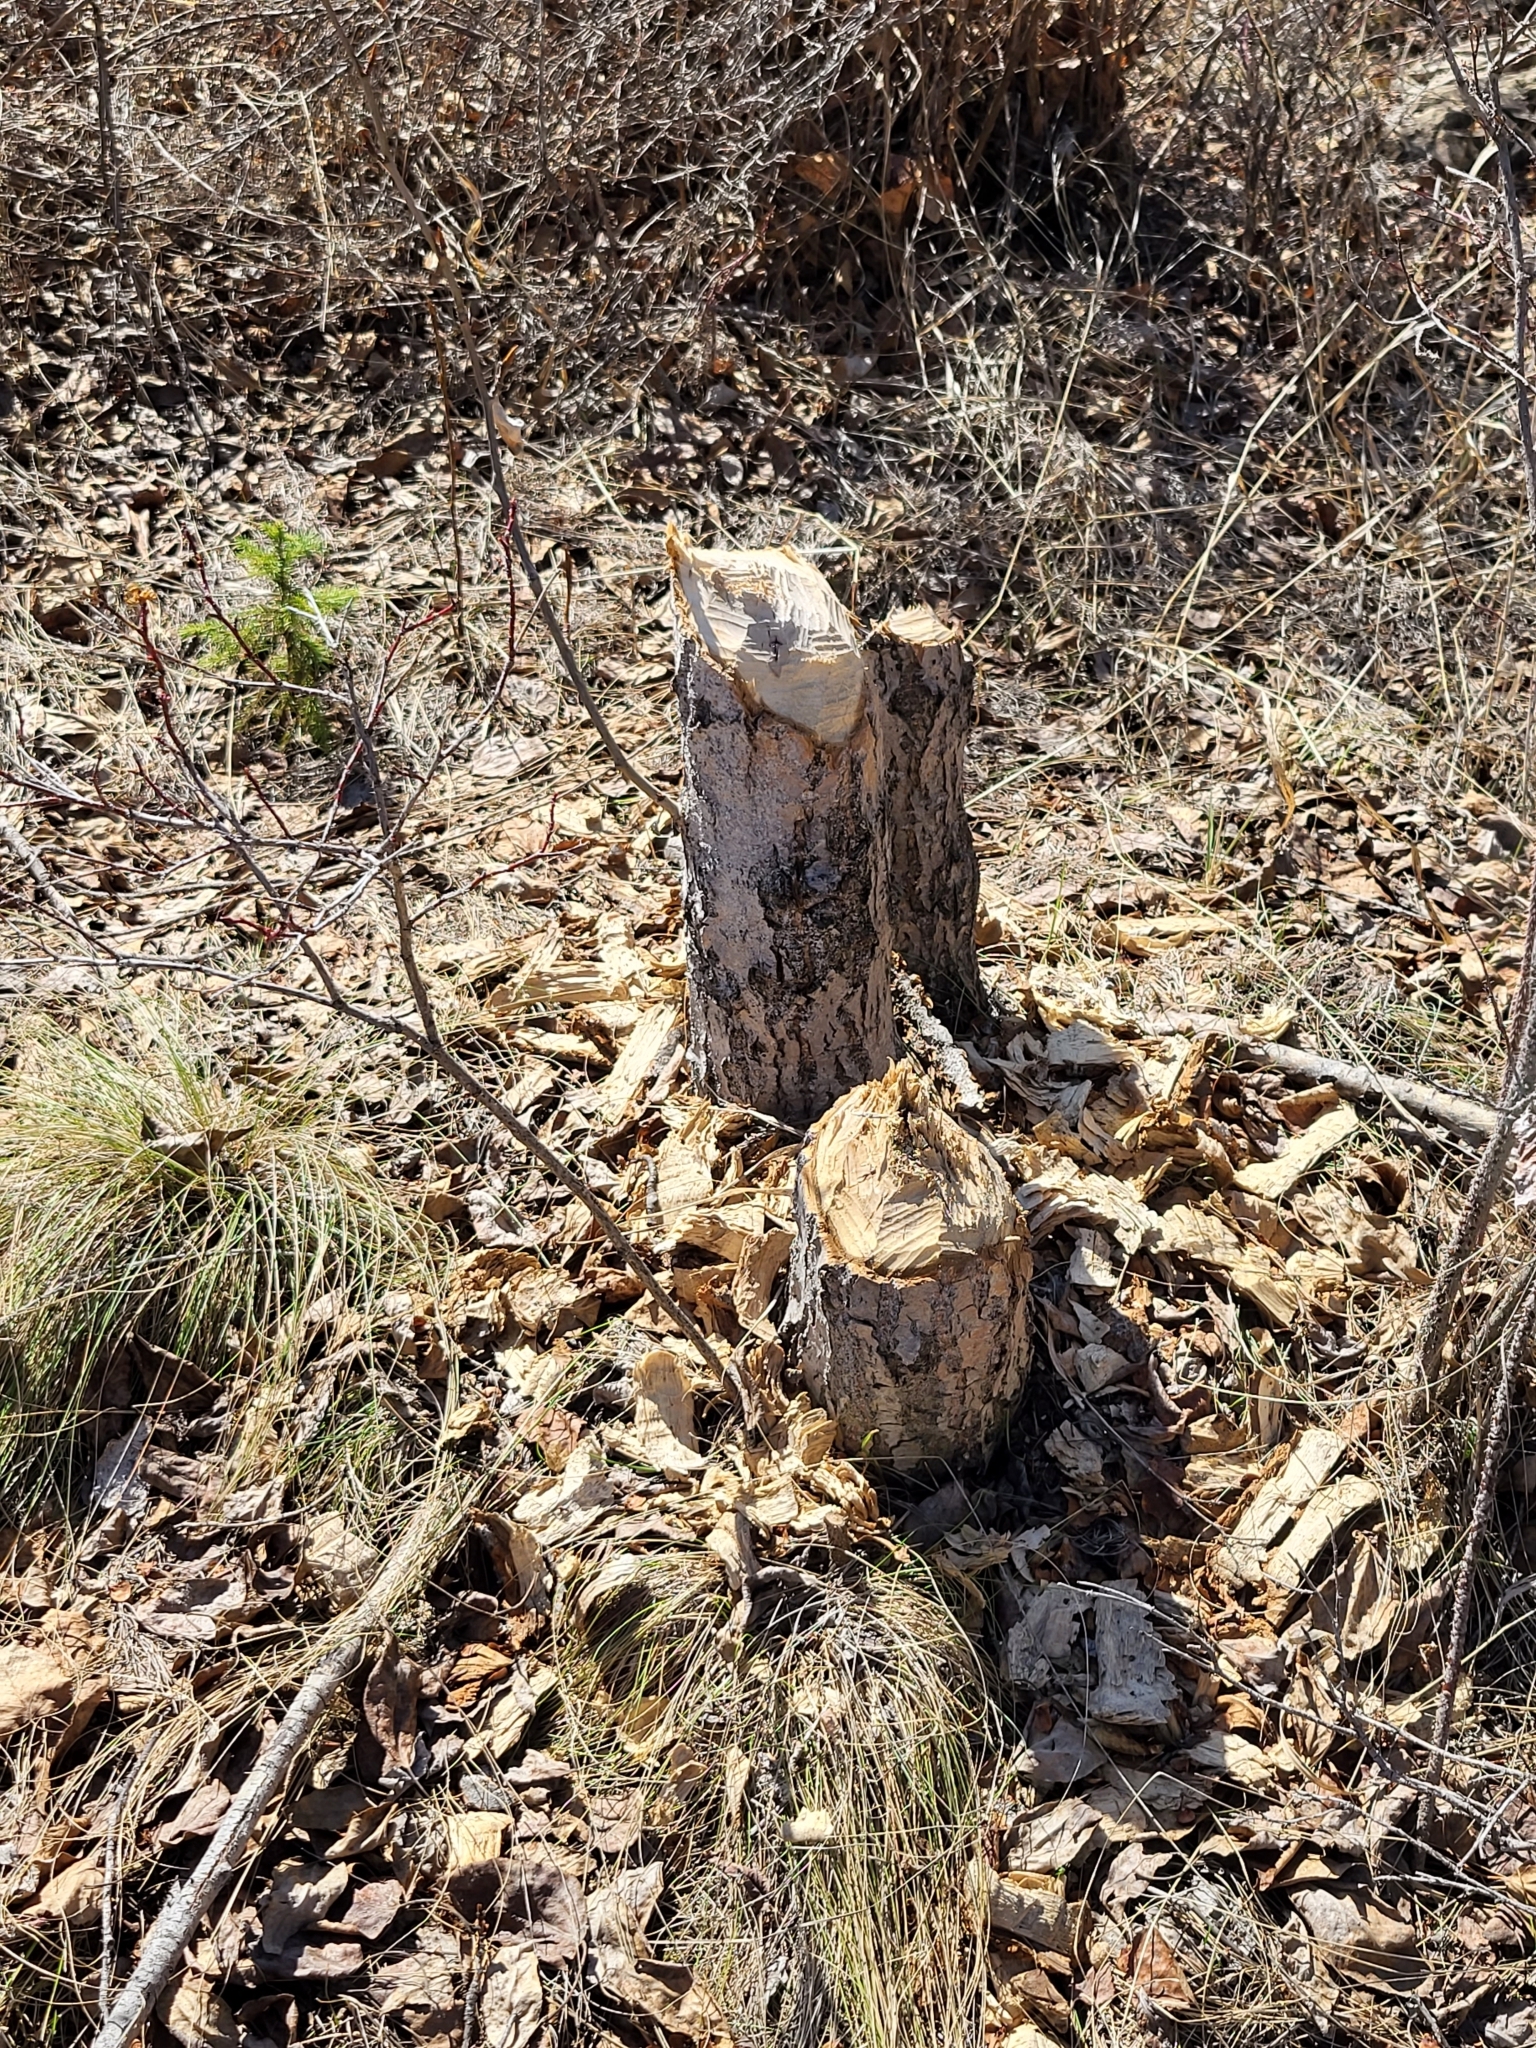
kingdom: Animalia
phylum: Chordata
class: Mammalia
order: Rodentia
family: Castoridae
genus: Castor
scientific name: Castor canadensis
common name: American beaver
